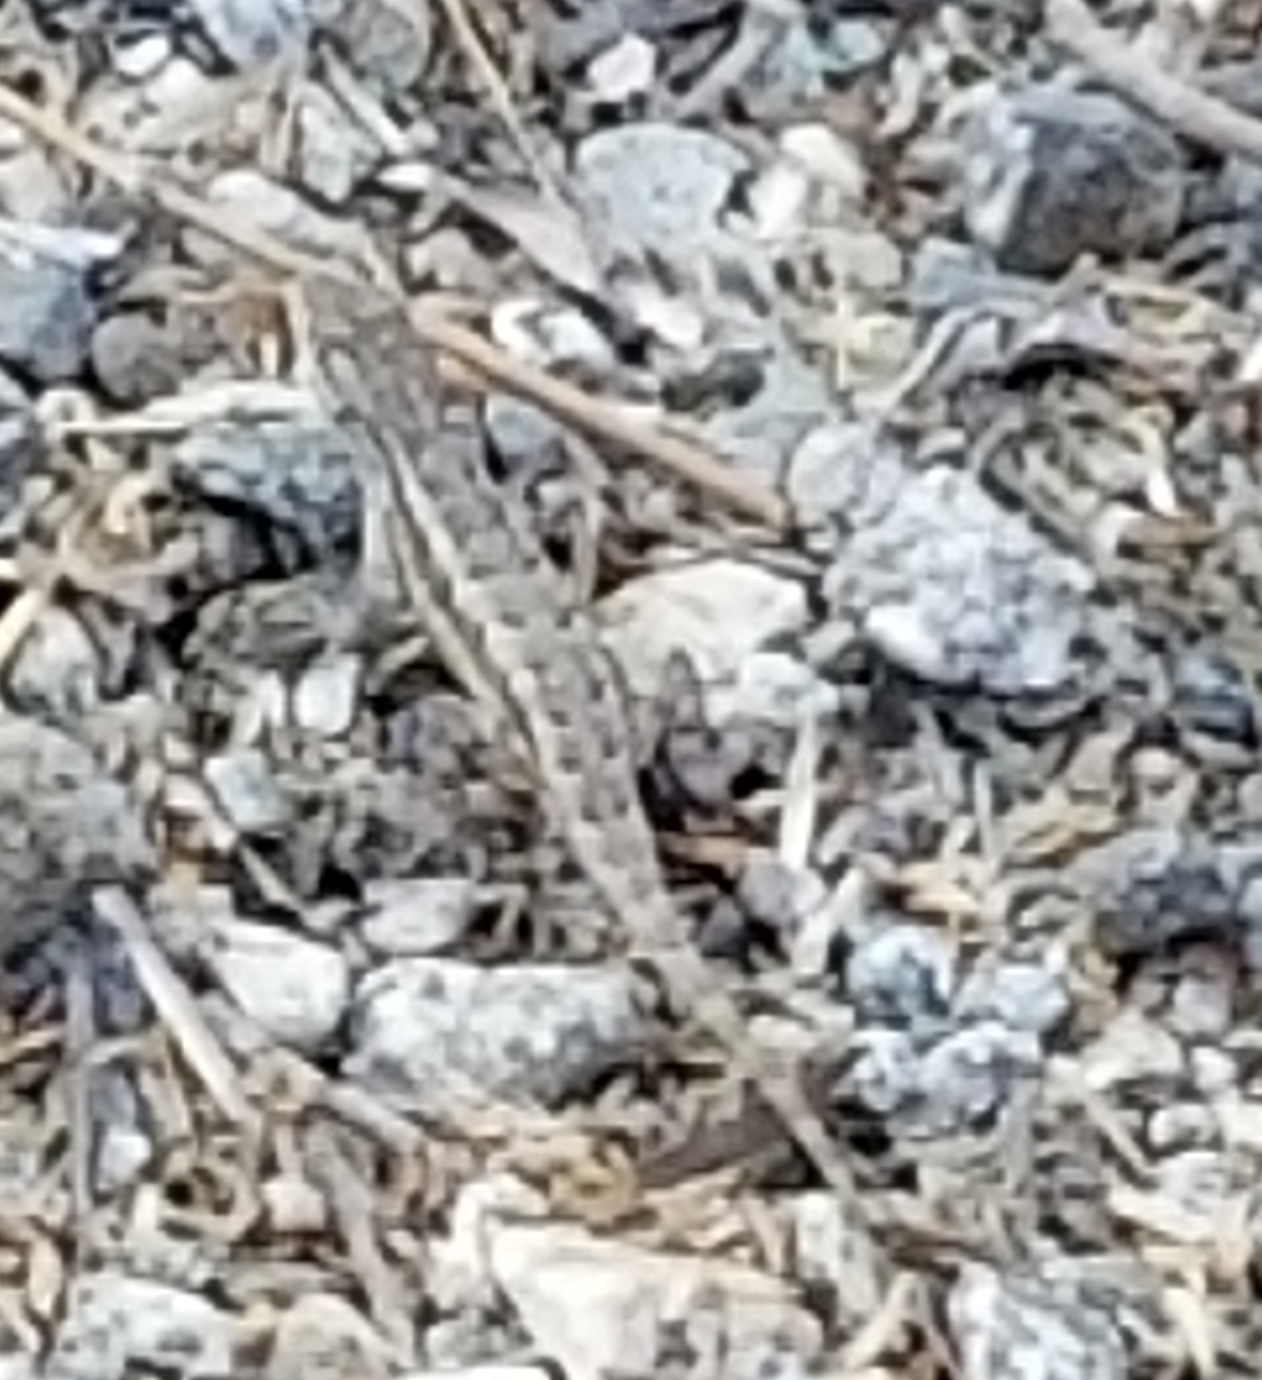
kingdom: Animalia
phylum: Chordata
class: Squamata
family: Phrynosomatidae
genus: Sceloporus
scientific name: Sceloporus occidentalis
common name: Western fence lizard
